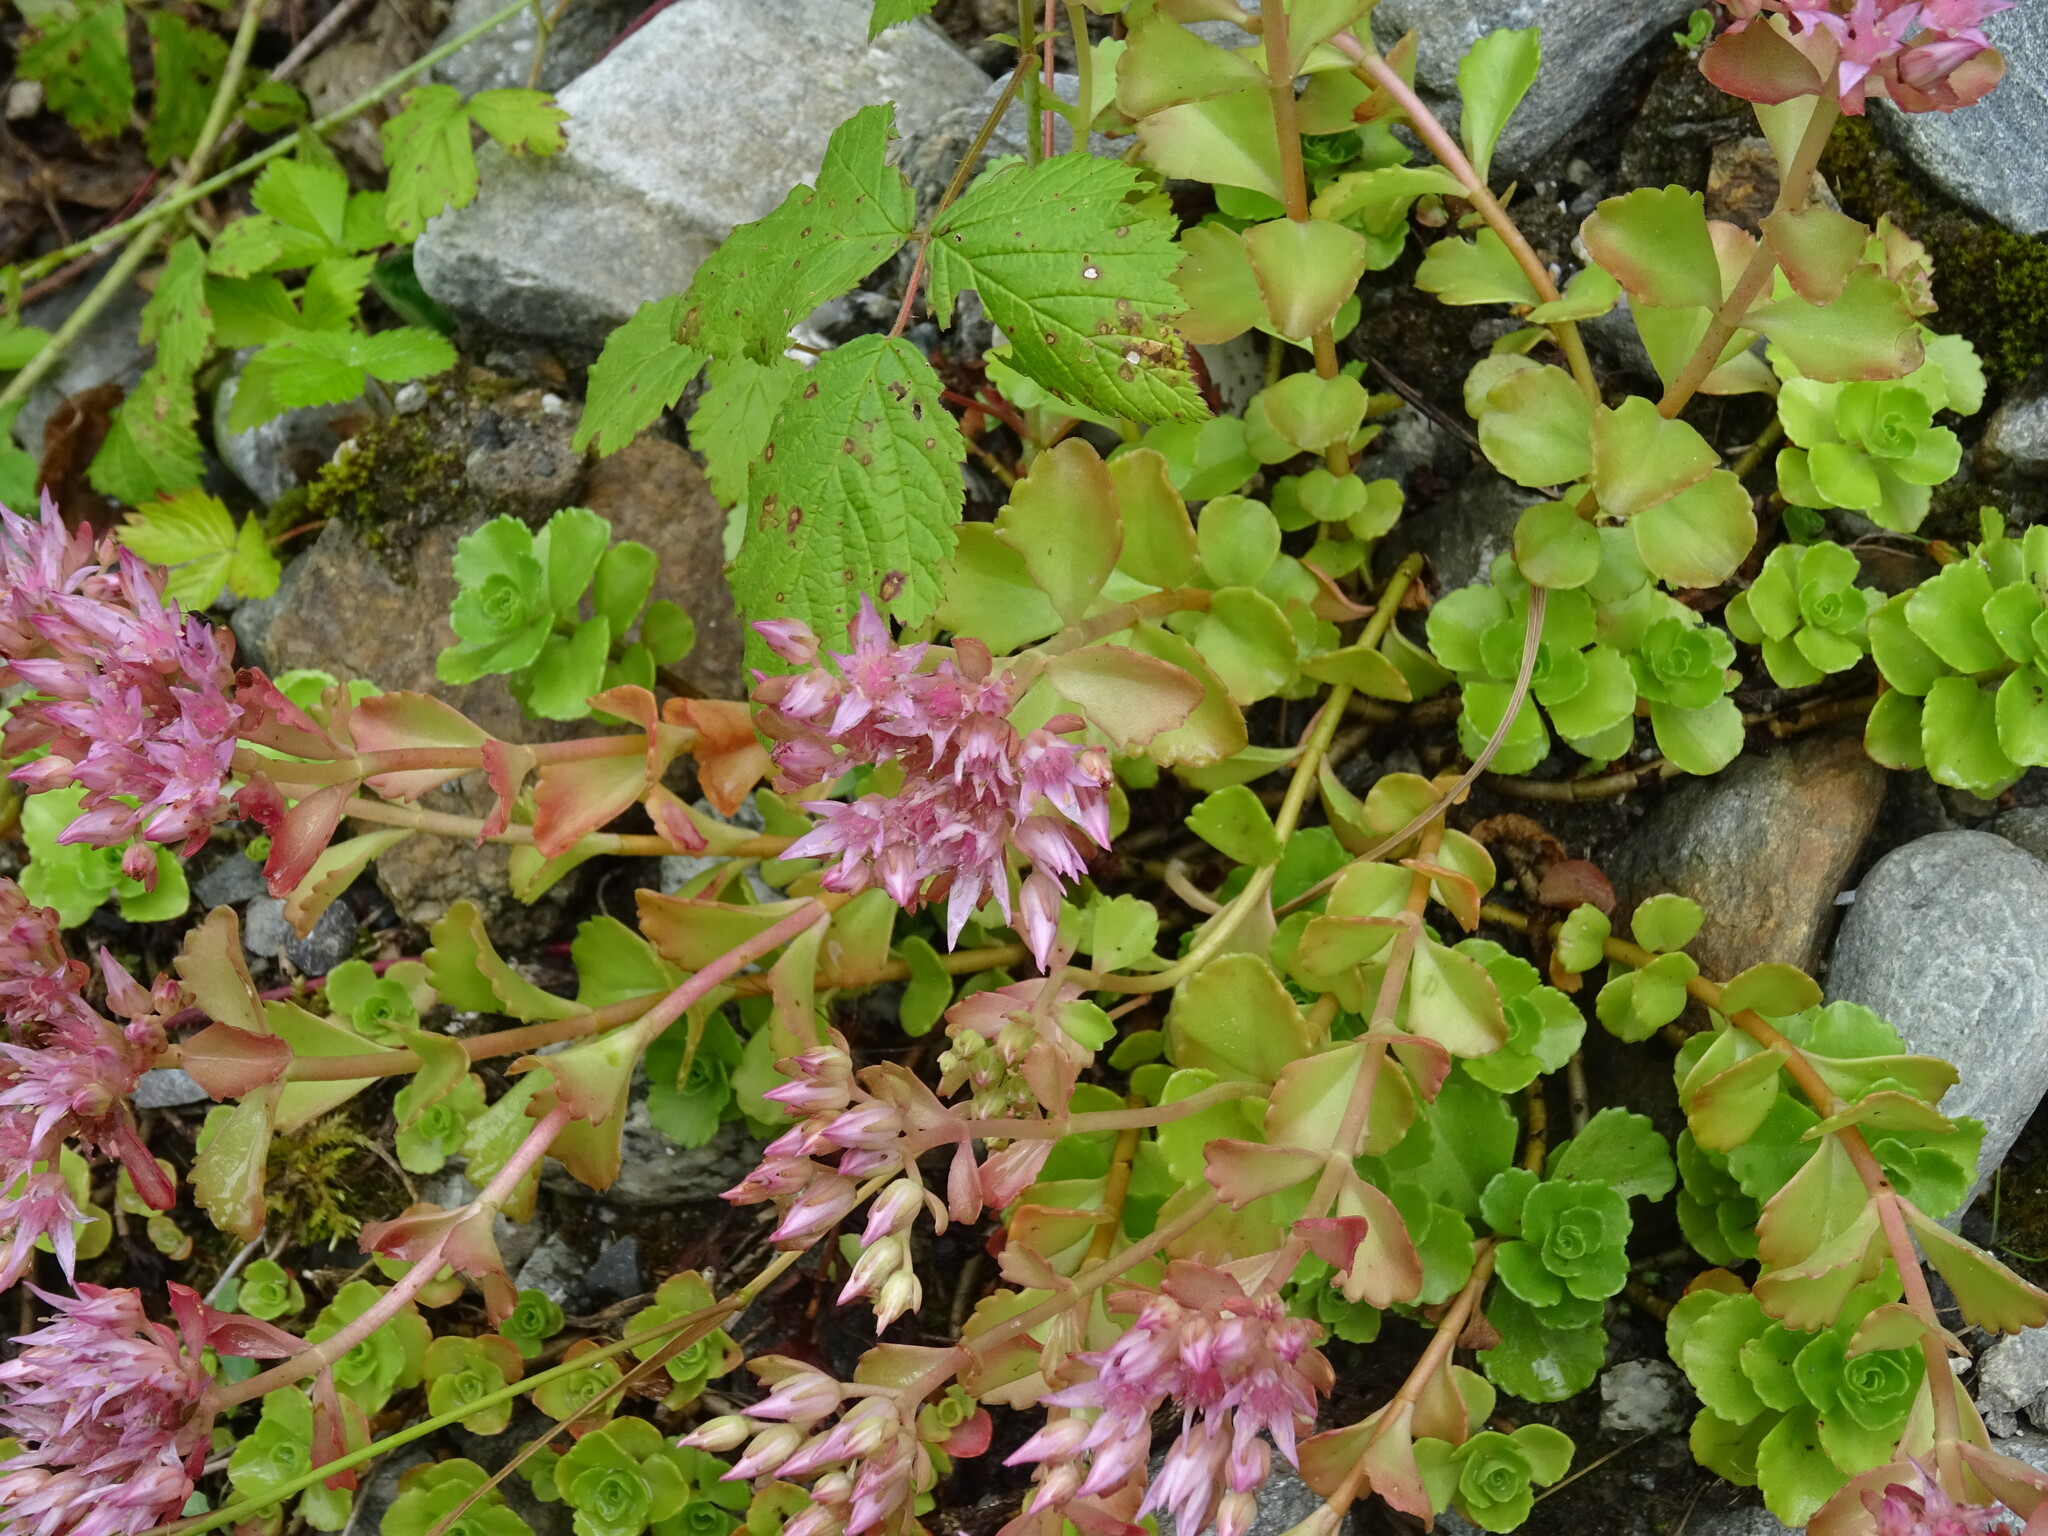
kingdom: Plantae
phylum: Tracheophyta
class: Magnoliopsida
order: Saxifragales
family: Crassulaceae
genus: Phedimus
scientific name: Phedimus spurius
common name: Caucasian stonecrop
